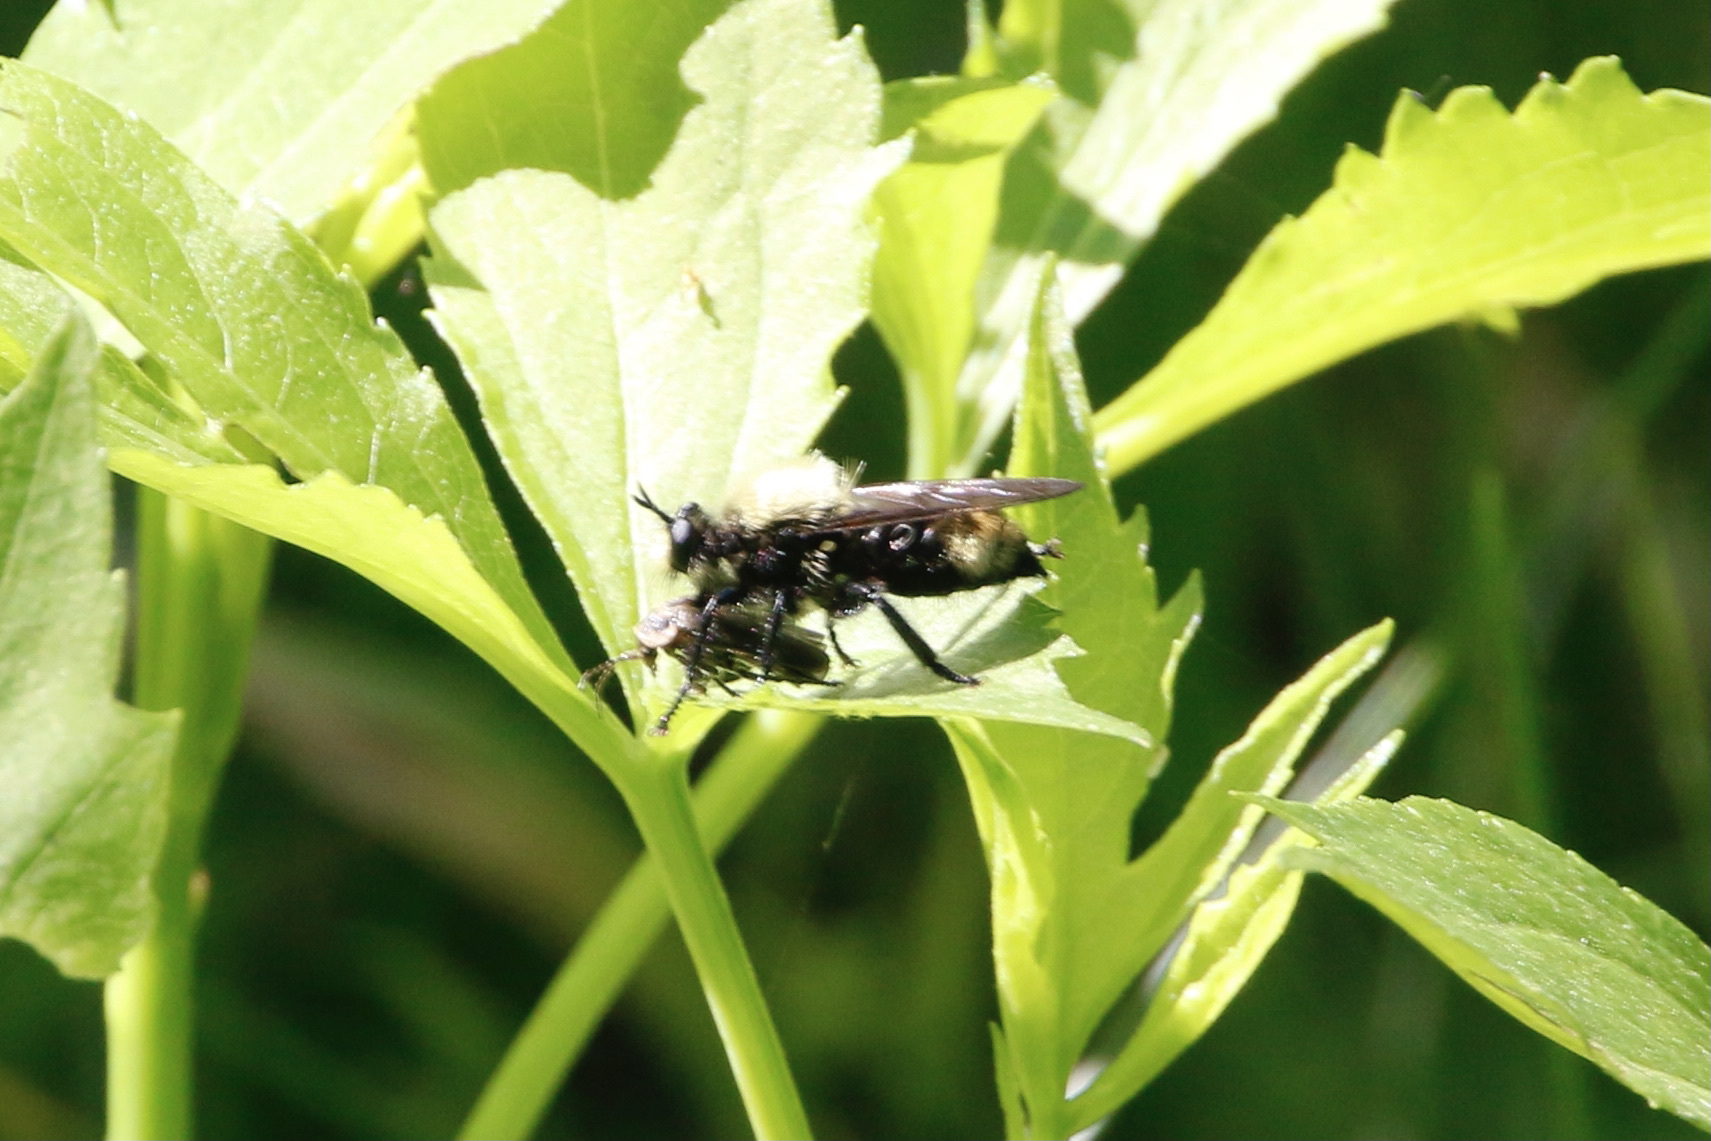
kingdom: Animalia
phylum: Arthropoda
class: Insecta
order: Diptera
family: Asilidae
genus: Laphria
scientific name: Laphria divisor
